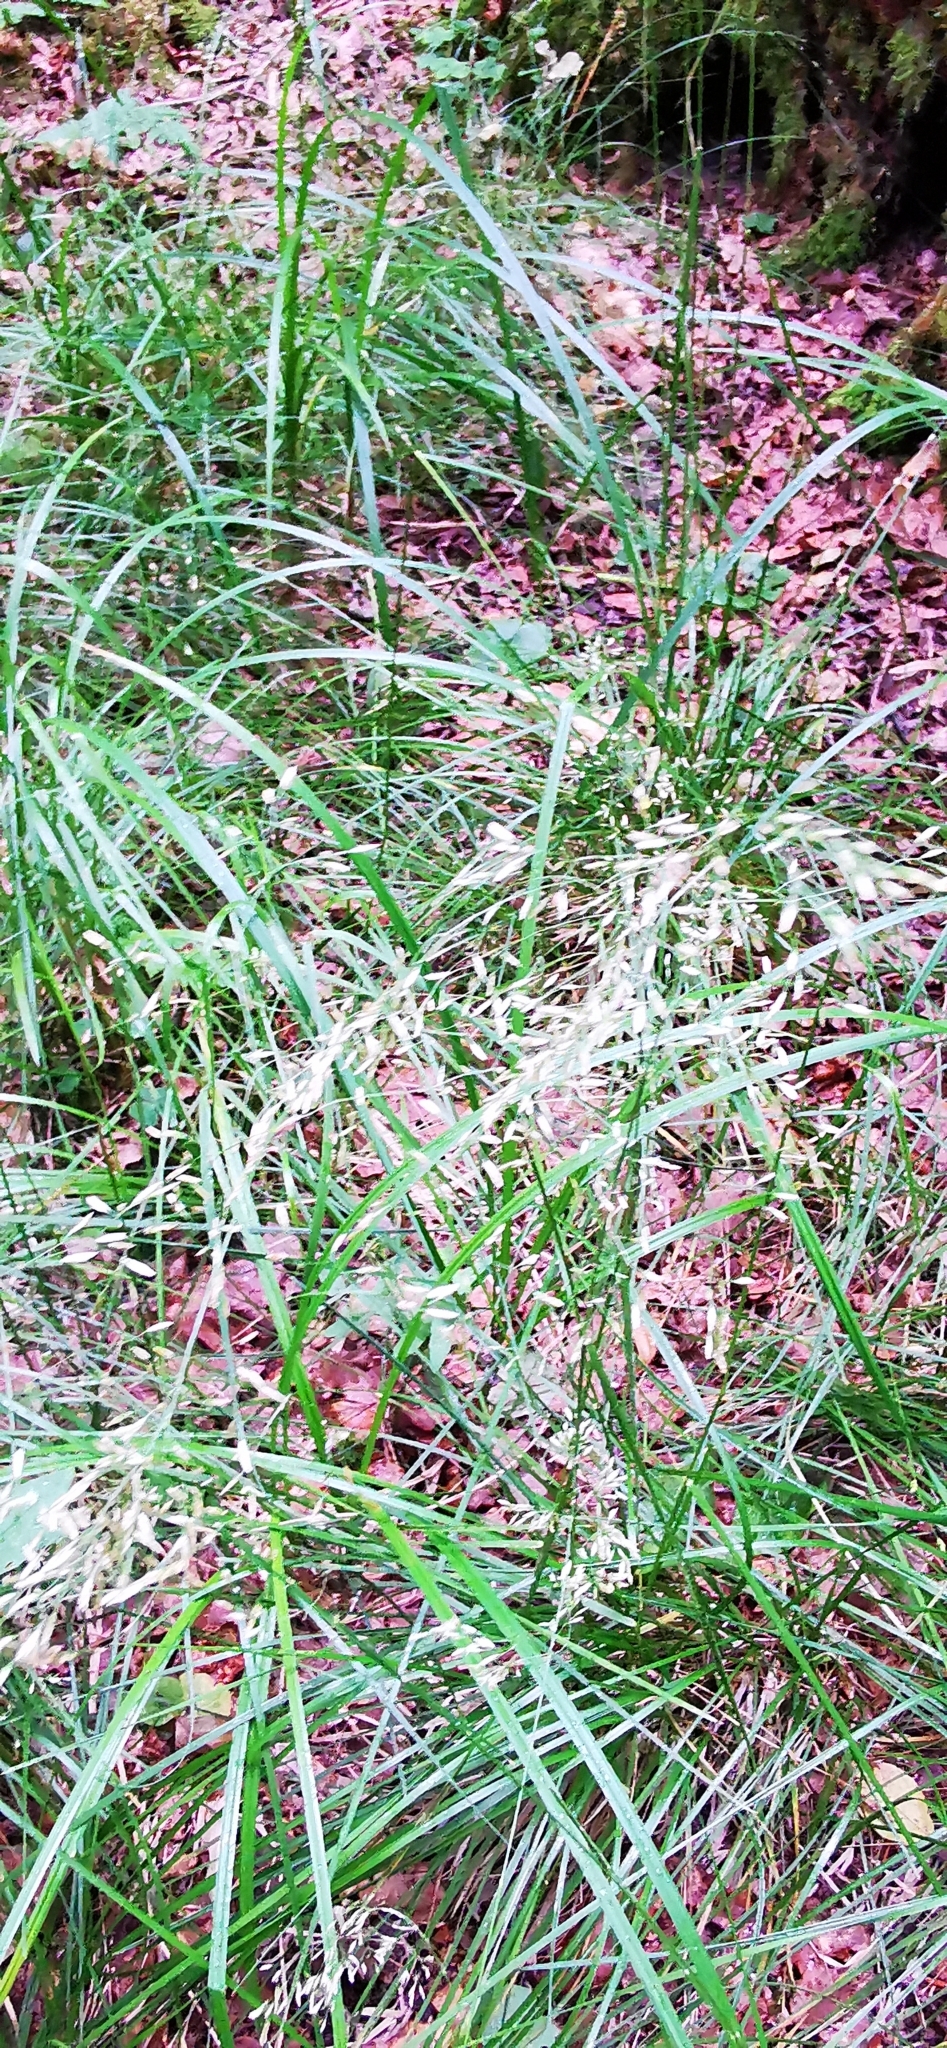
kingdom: Plantae
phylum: Tracheophyta
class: Liliopsida
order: Poales
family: Poaceae
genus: Deschampsia
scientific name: Deschampsia cespitosa
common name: Tufted hair-grass
